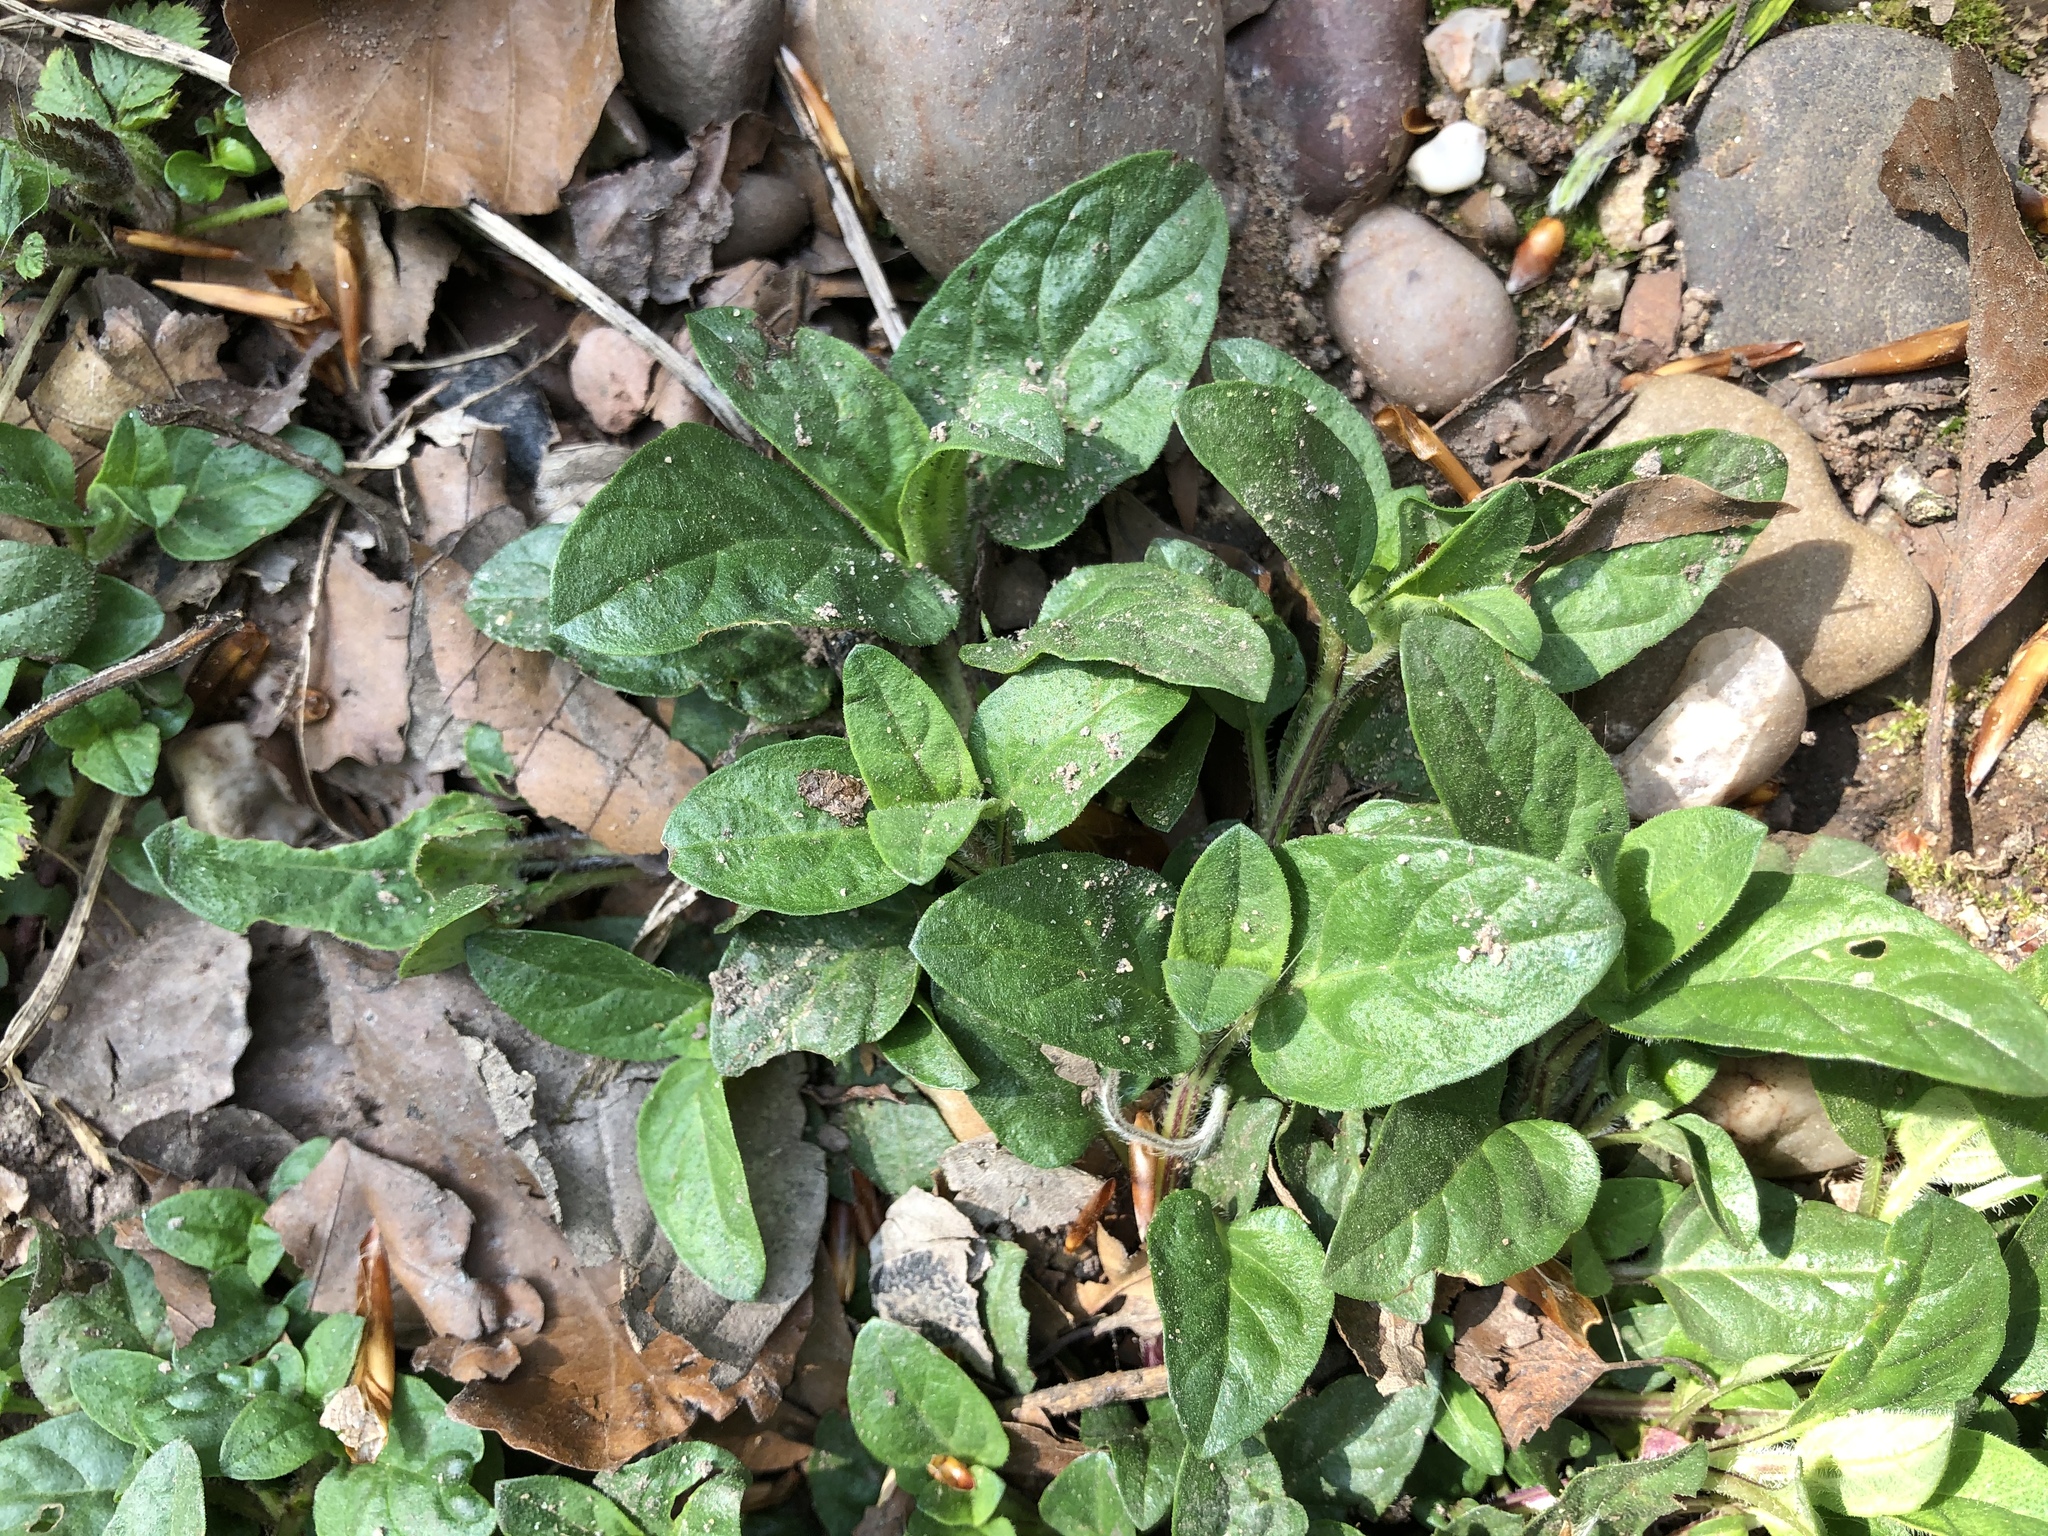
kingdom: Plantae
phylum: Tracheophyta
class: Magnoliopsida
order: Lamiales
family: Lamiaceae
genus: Prunella
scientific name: Prunella vulgaris
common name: Heal-all
